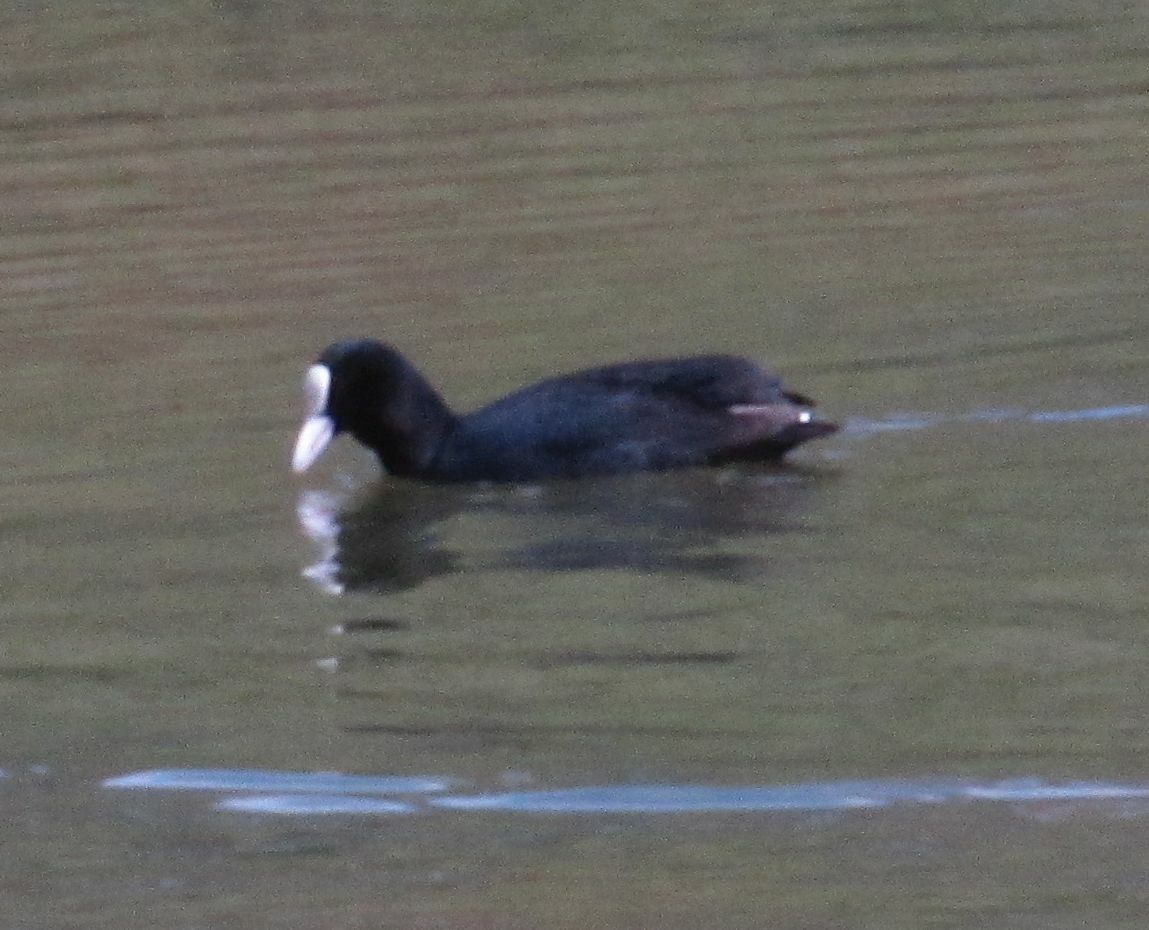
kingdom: Animalia
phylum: Chordata
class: Aves
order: Gruiformes
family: Rallidae
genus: Fulica
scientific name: Fulica atra
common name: Eurasian coot
